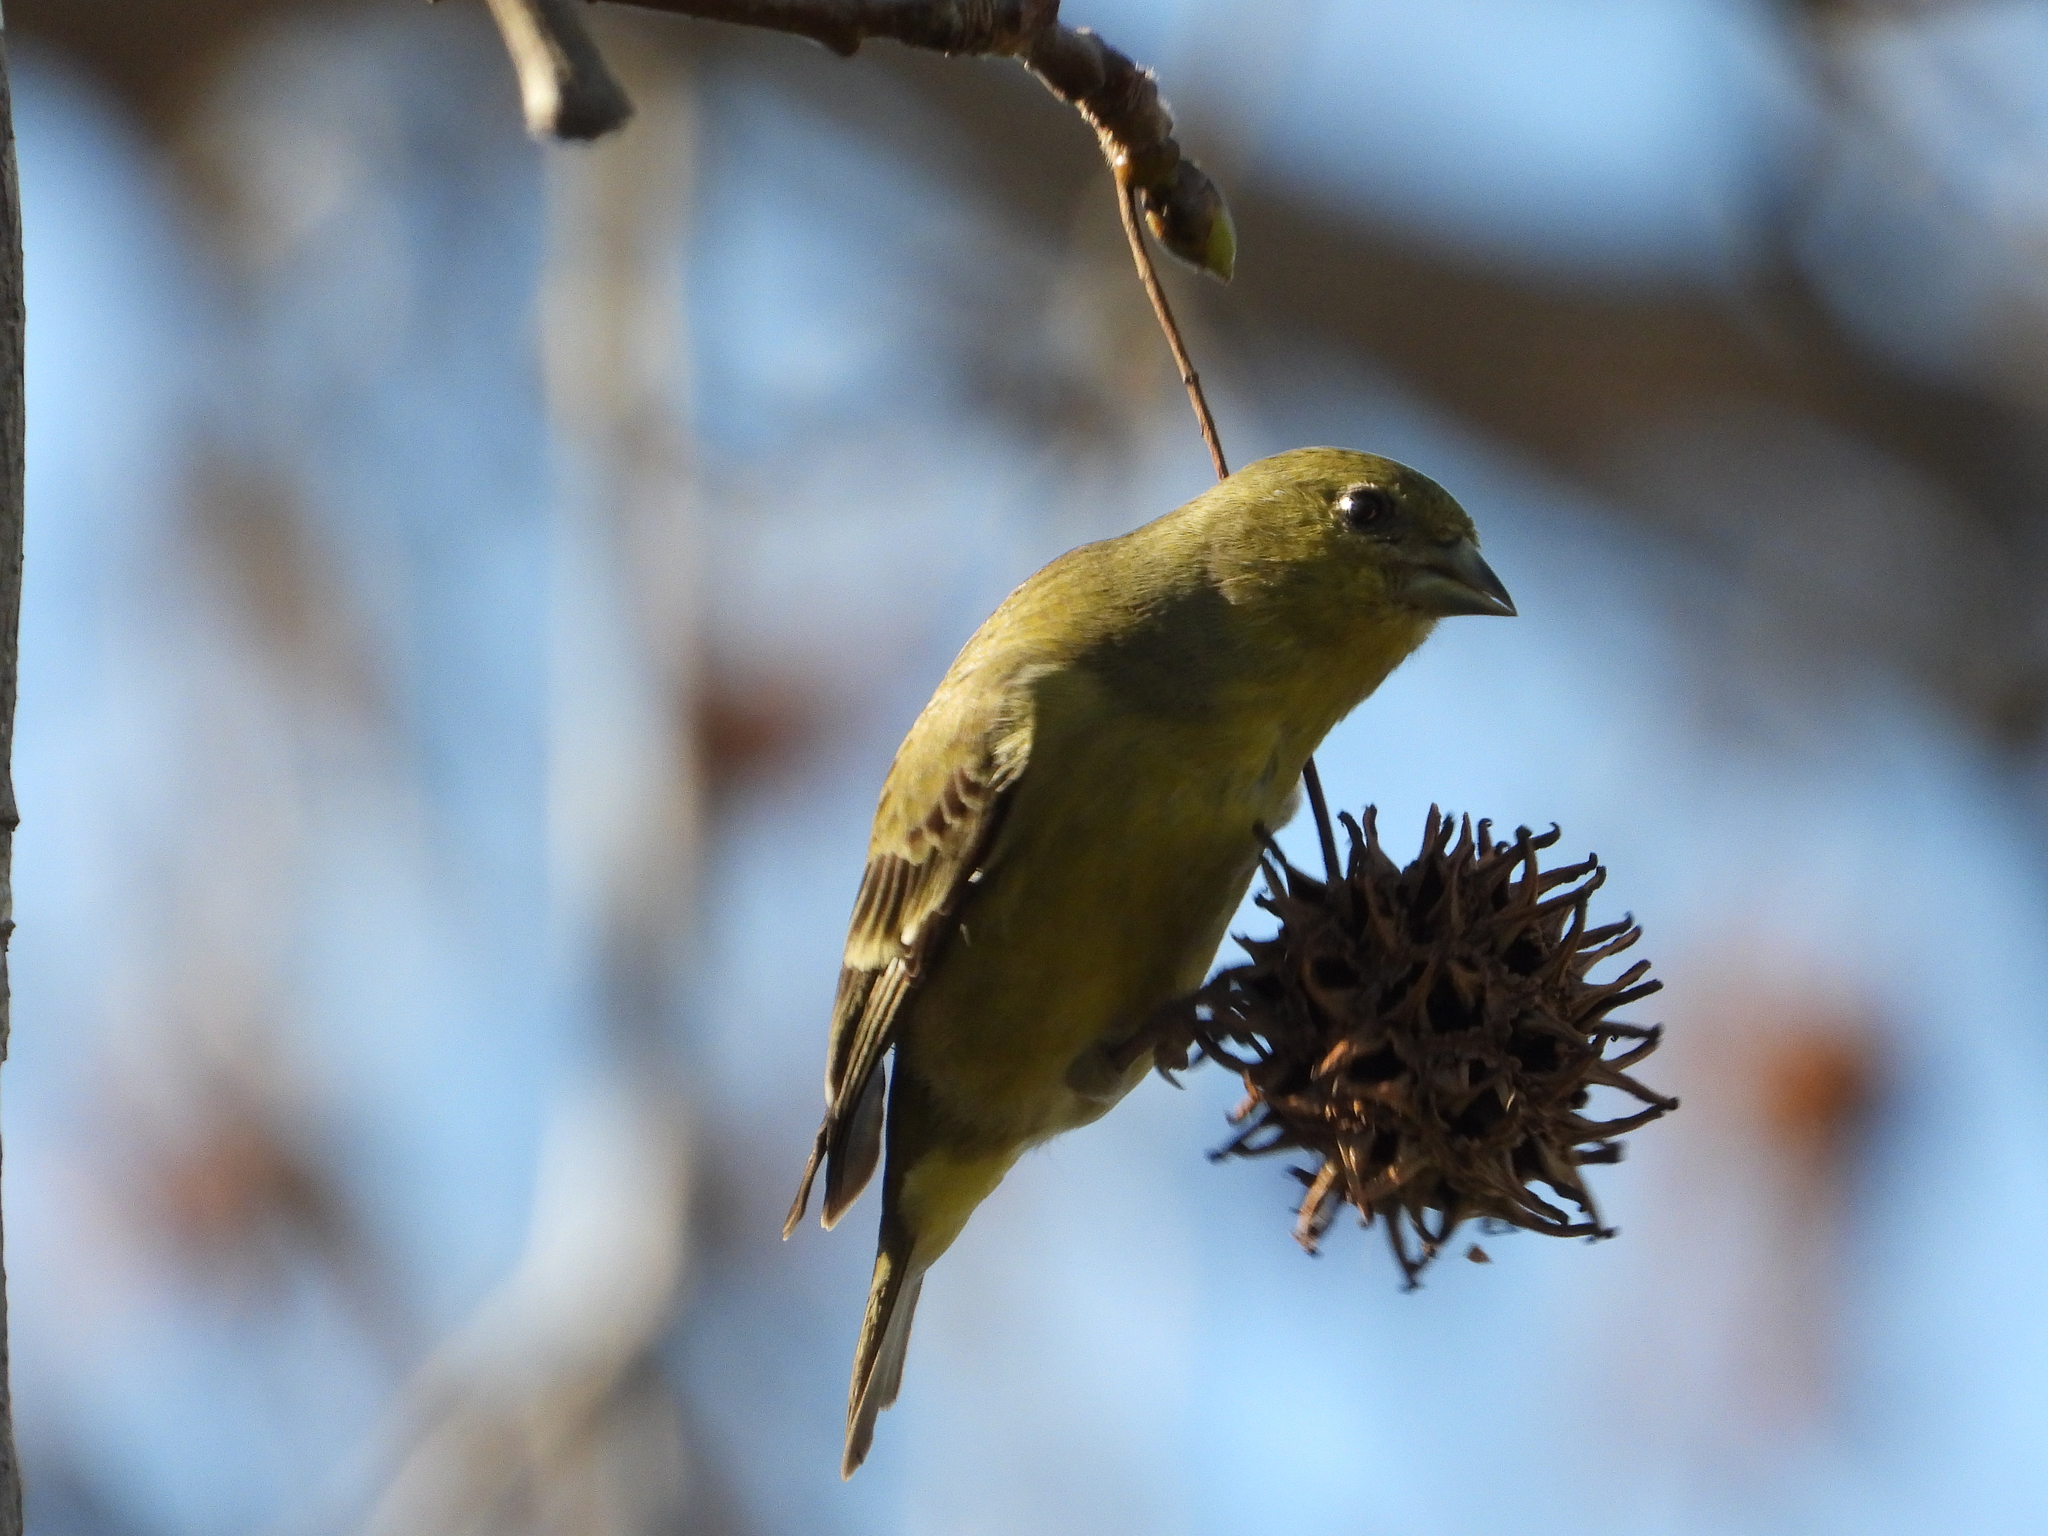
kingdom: Animalia
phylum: Chordata
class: Aves
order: Passeriformes
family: Fringillidae
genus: Spinus
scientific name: Spinus psaltria
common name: Lesser goldfinch
